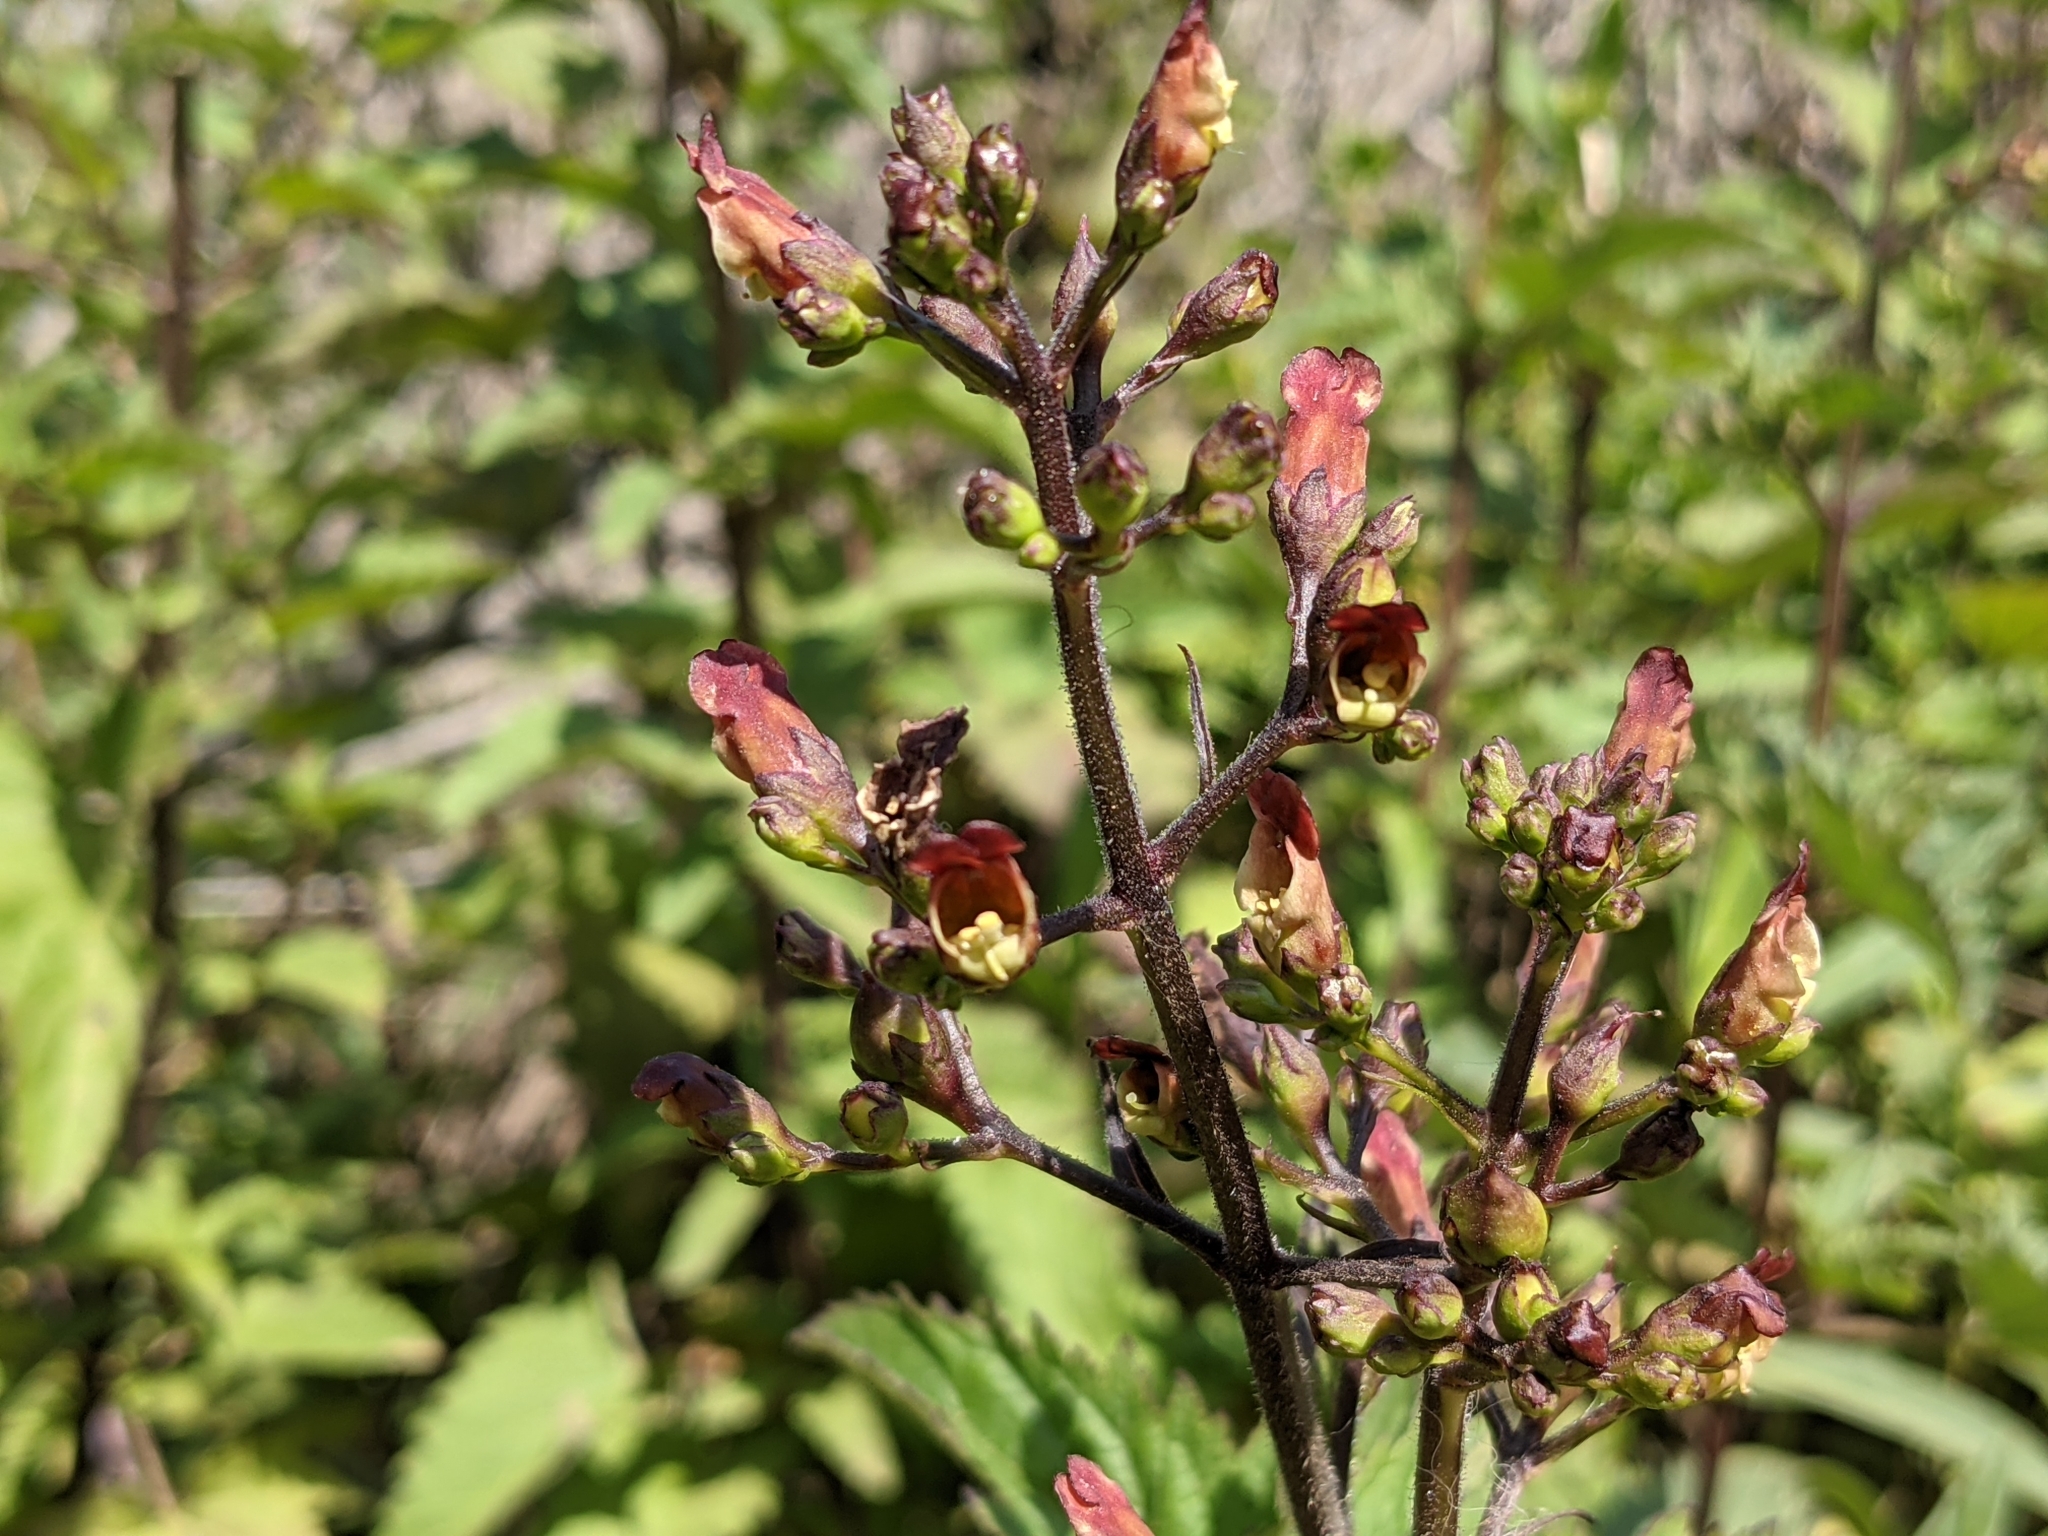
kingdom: Plantae
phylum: Tracheophyta
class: Magnoliopsida
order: Lamiales
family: Scrophulariaceae
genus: Scrophularia
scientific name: Scrophularia californica
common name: California figwort
